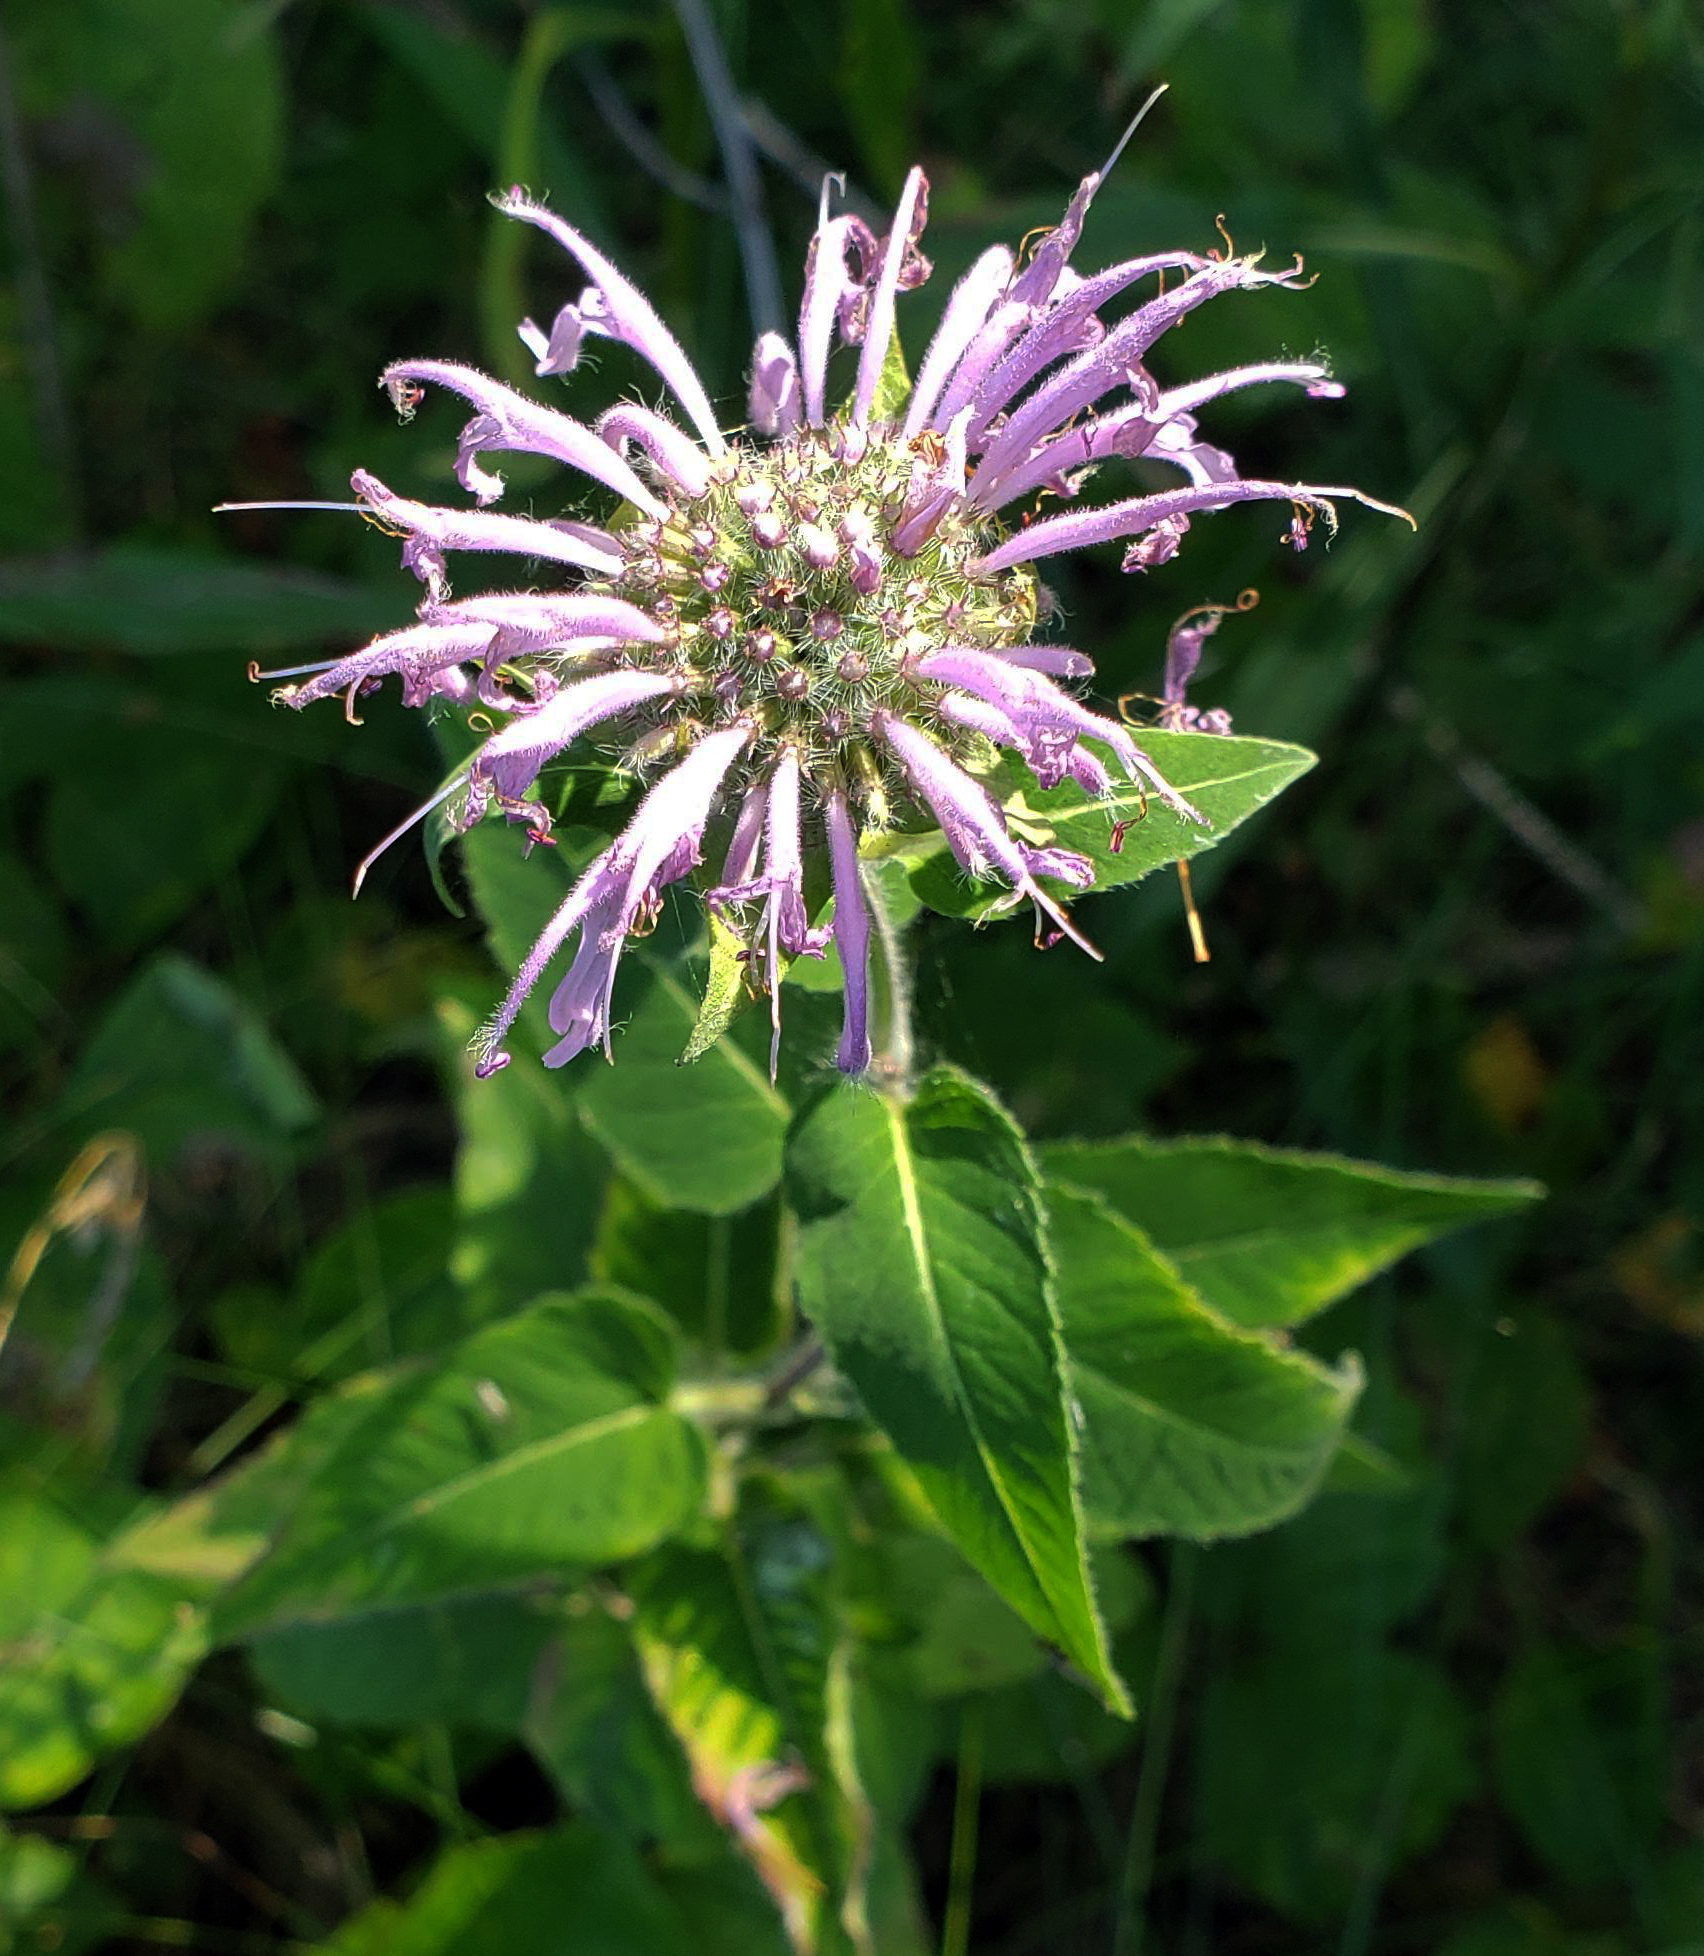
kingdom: Plantae
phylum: Tracheophyta
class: Magnoliopsida
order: Lamiales
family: Lamiaceae
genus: Monarda
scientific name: Monarda fistulosa
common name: Purple beebalm
